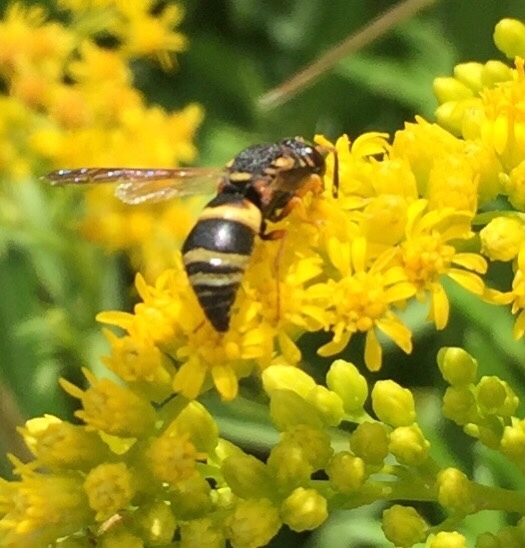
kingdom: Animalia
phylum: Arthropoda
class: Insecta
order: Hymenoptera
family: Eumenidae
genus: Euodynerus
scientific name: Euodynerus hidalgo
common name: Wasp
